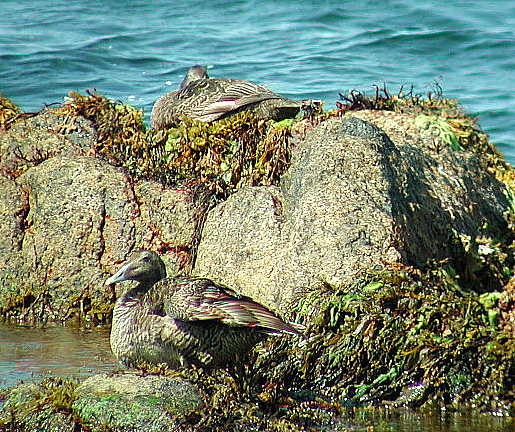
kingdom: Animalia
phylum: Chordata
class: Aves
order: Anseriformes
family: Anatidae
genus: Somateria
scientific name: Somateria mollissima
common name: Common eider
